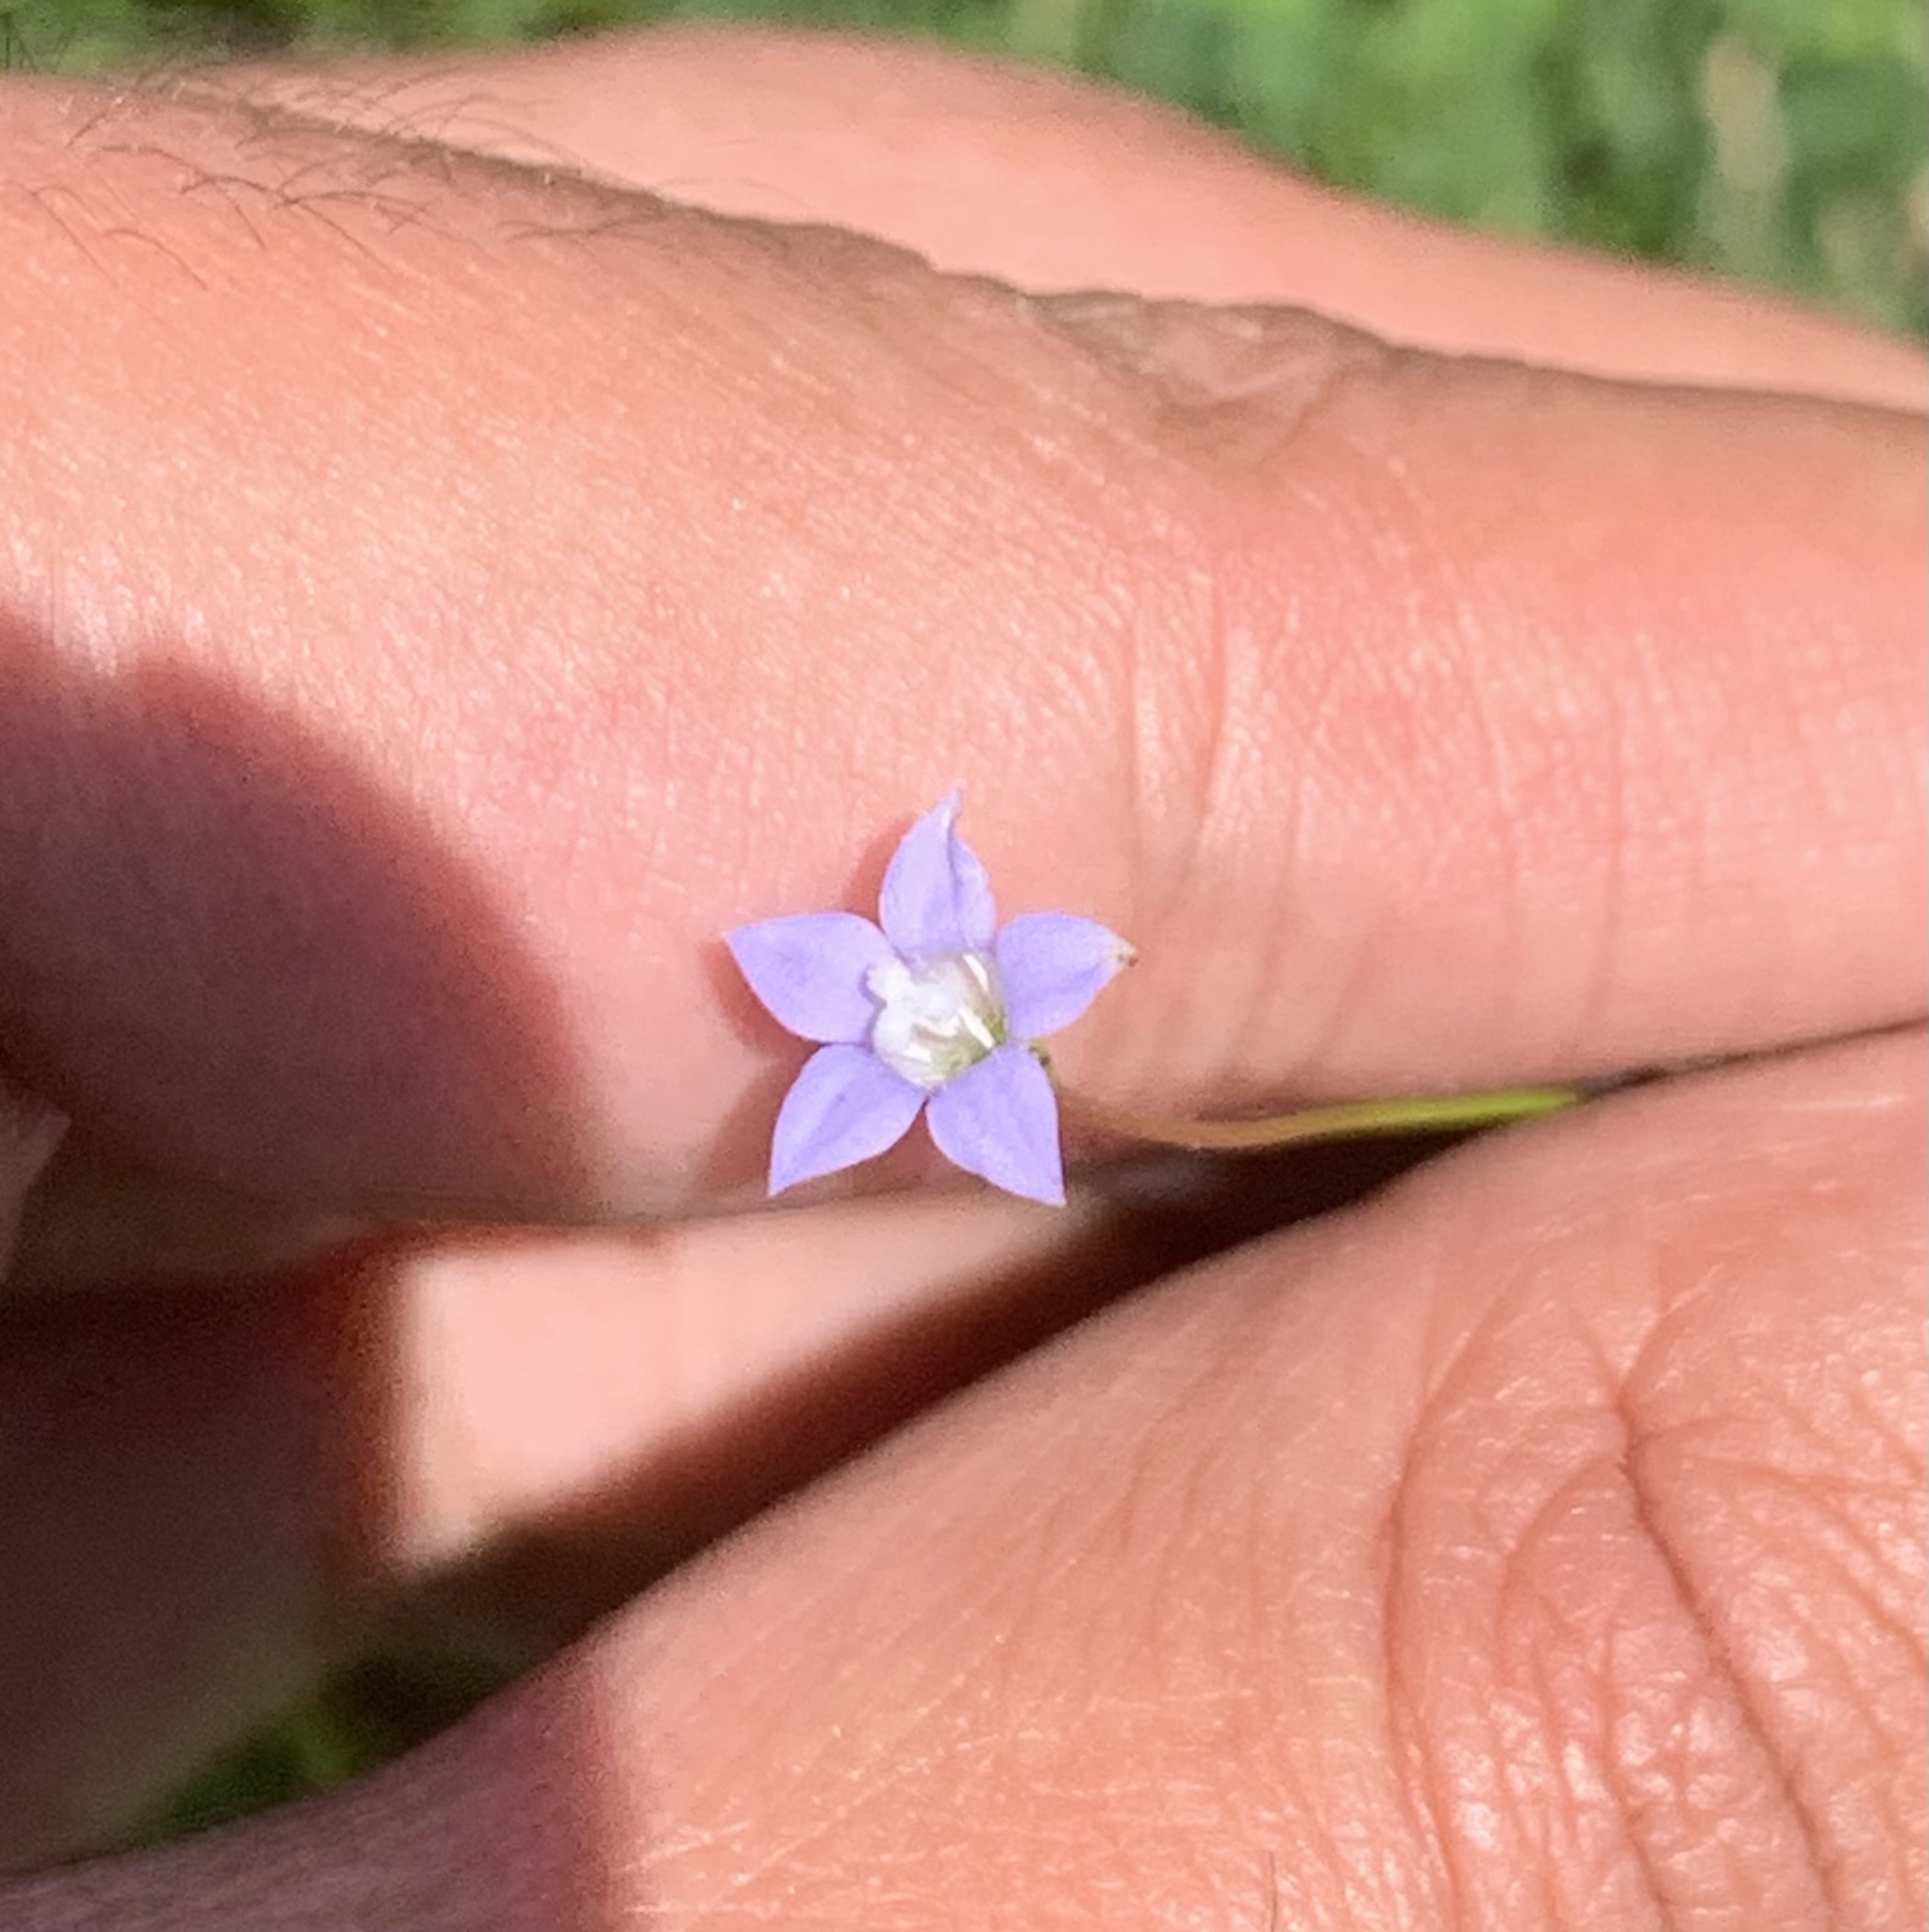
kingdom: Plantae
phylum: Tracheophyta
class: Magnoliopsida
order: Asterales
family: Campanulaceae
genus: Wahlenbergia
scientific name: Wahlenbergia marginata
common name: Southern rockbell
